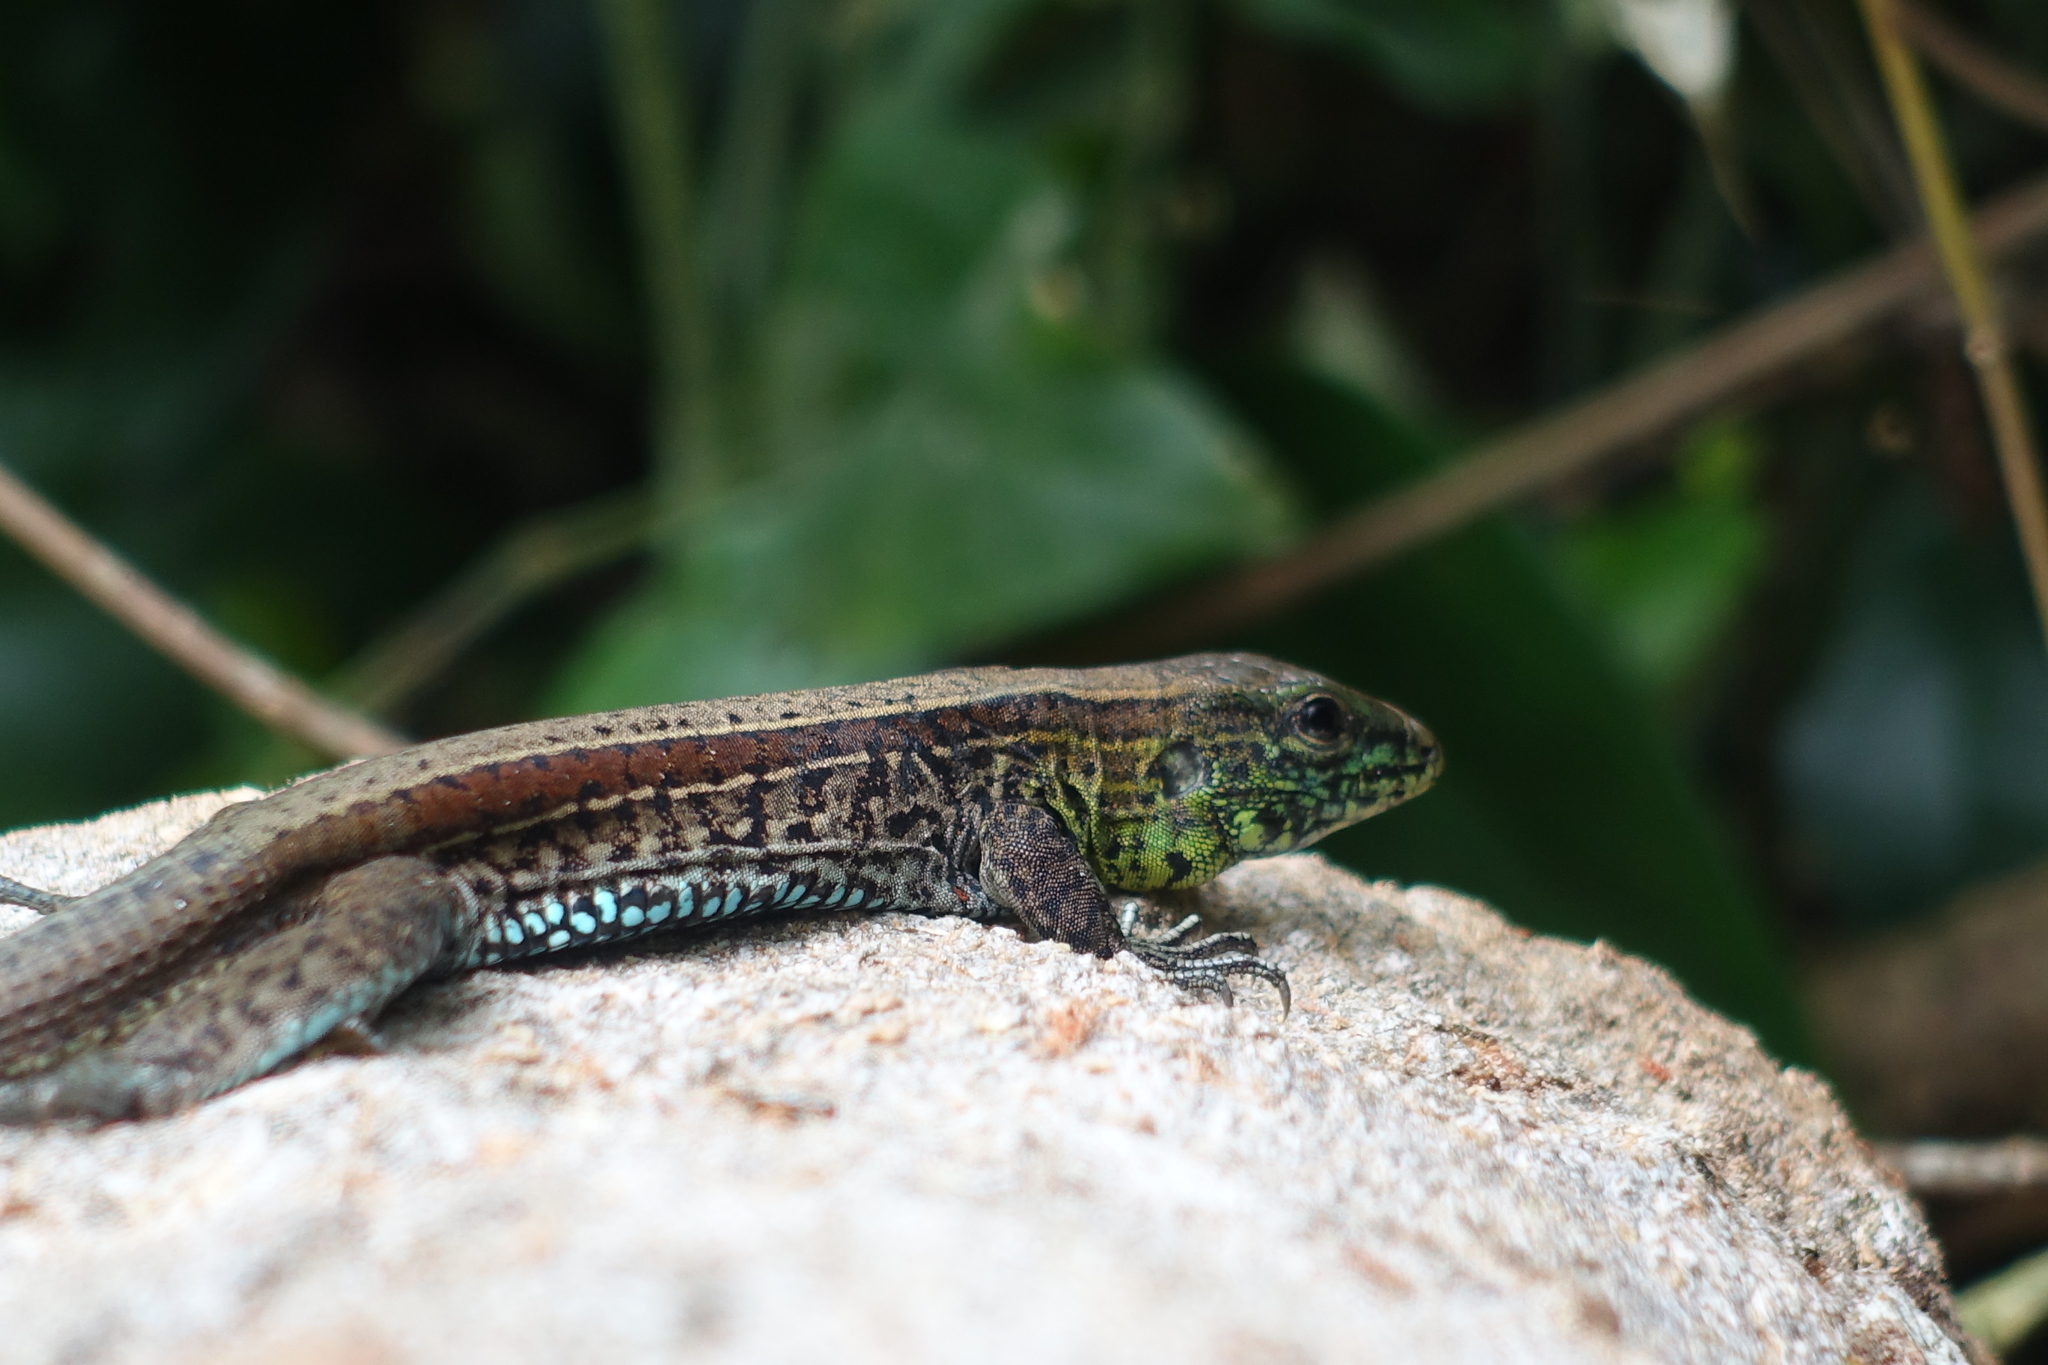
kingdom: Animalia
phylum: Chordata
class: Squamata
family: Teiidae
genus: Holcosus
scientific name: Holcosus quadrilineatus
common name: Four-lined ameiva
